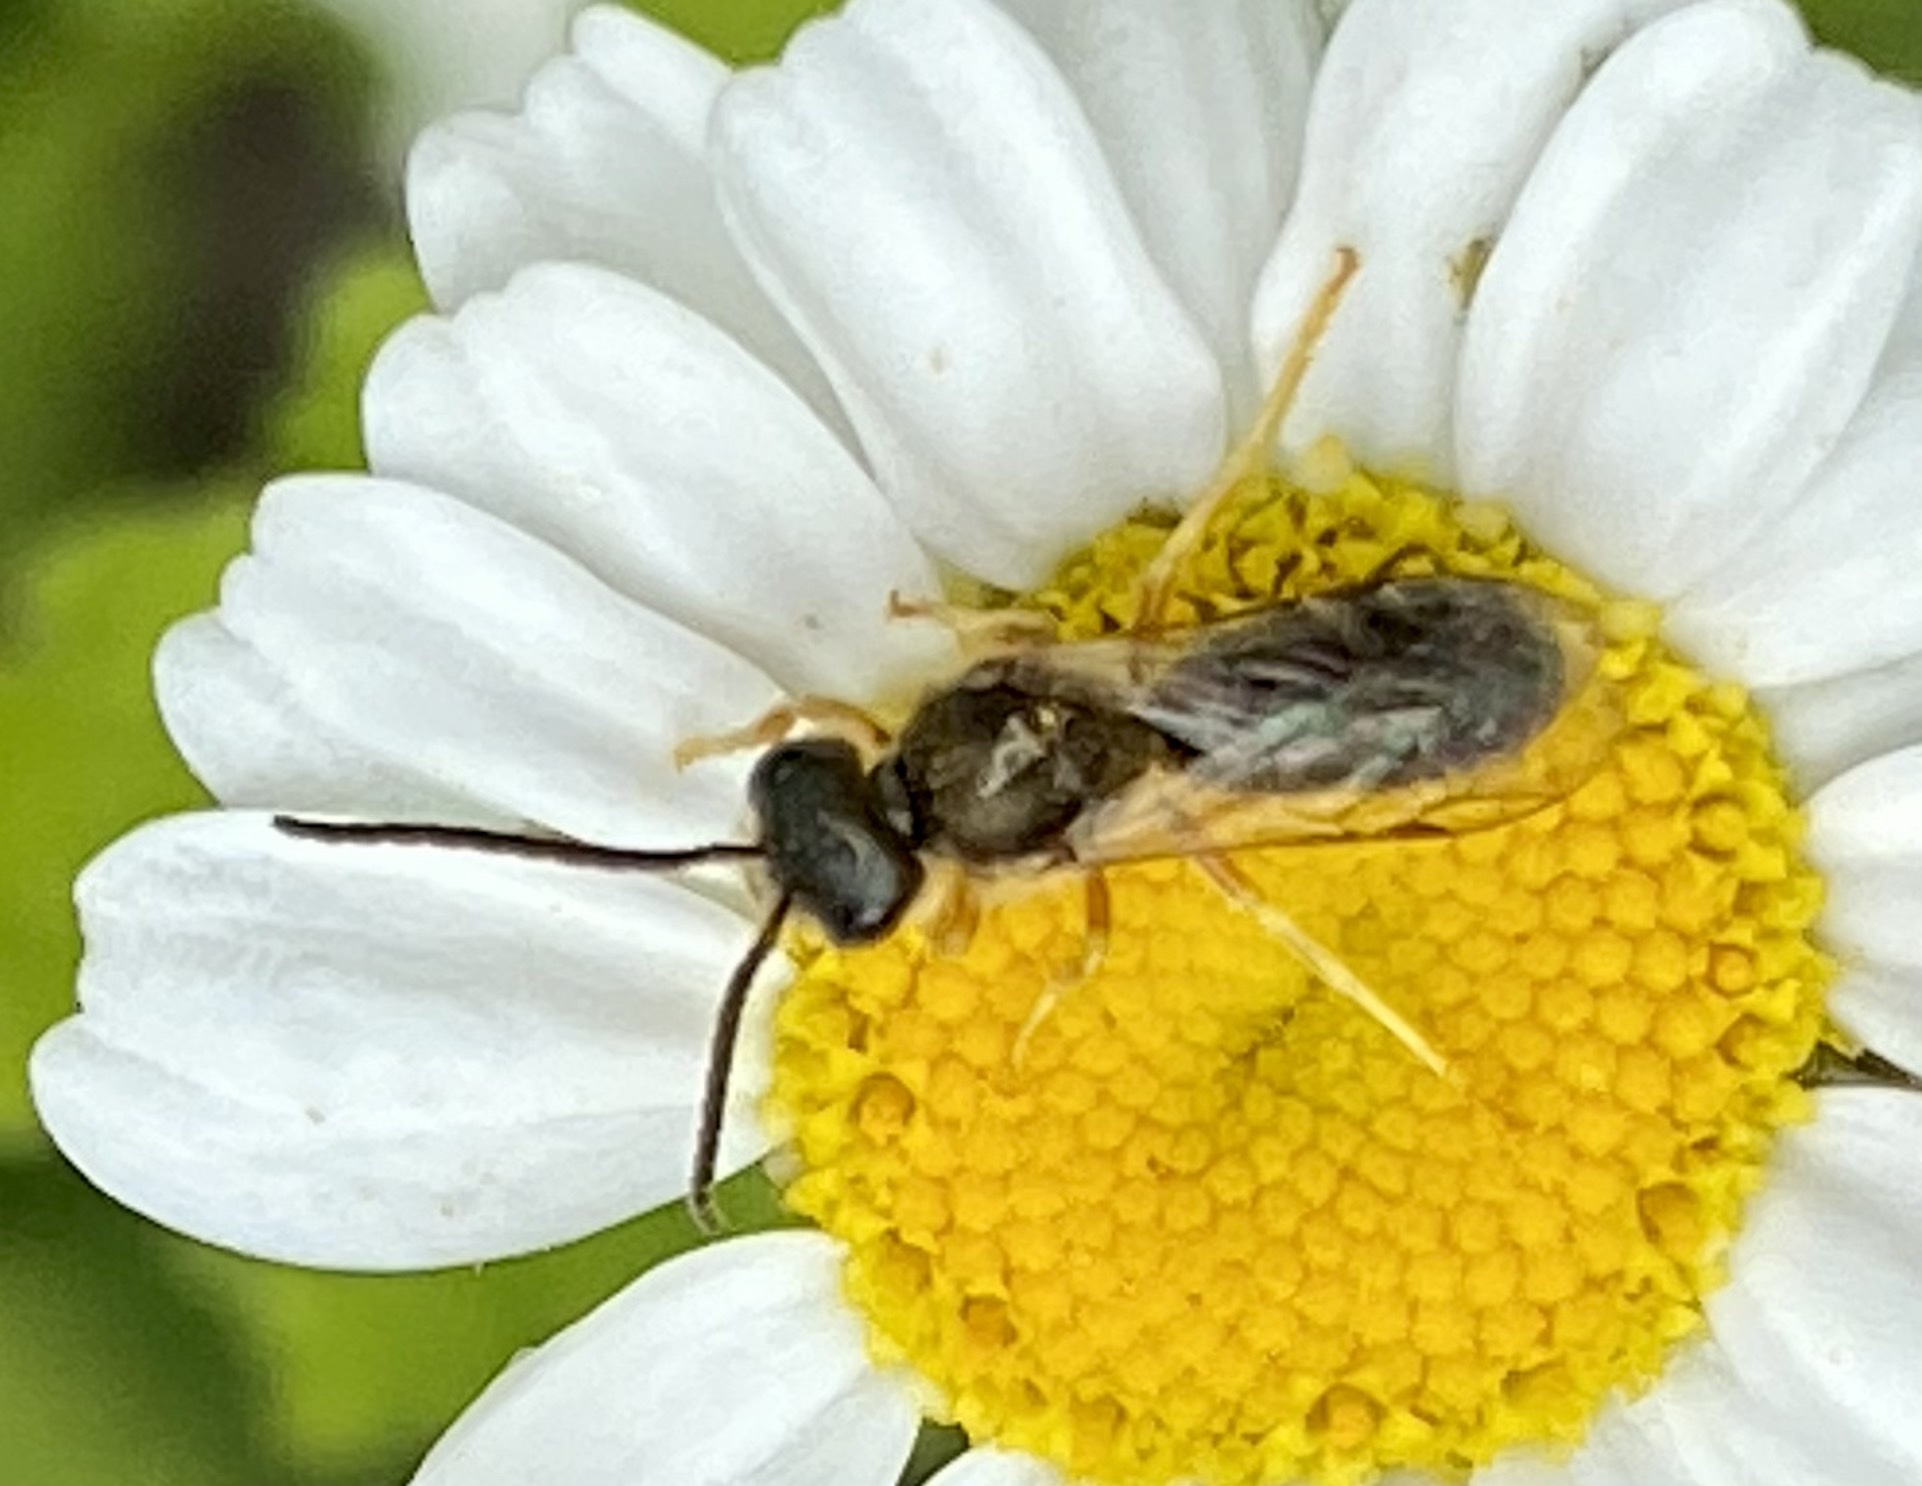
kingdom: Animalia
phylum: Arthropoda
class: Insecta
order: Hymenoptera
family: Halictidae
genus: Halictus
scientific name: Halictus tumulorum
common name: Bronze furrow bee
